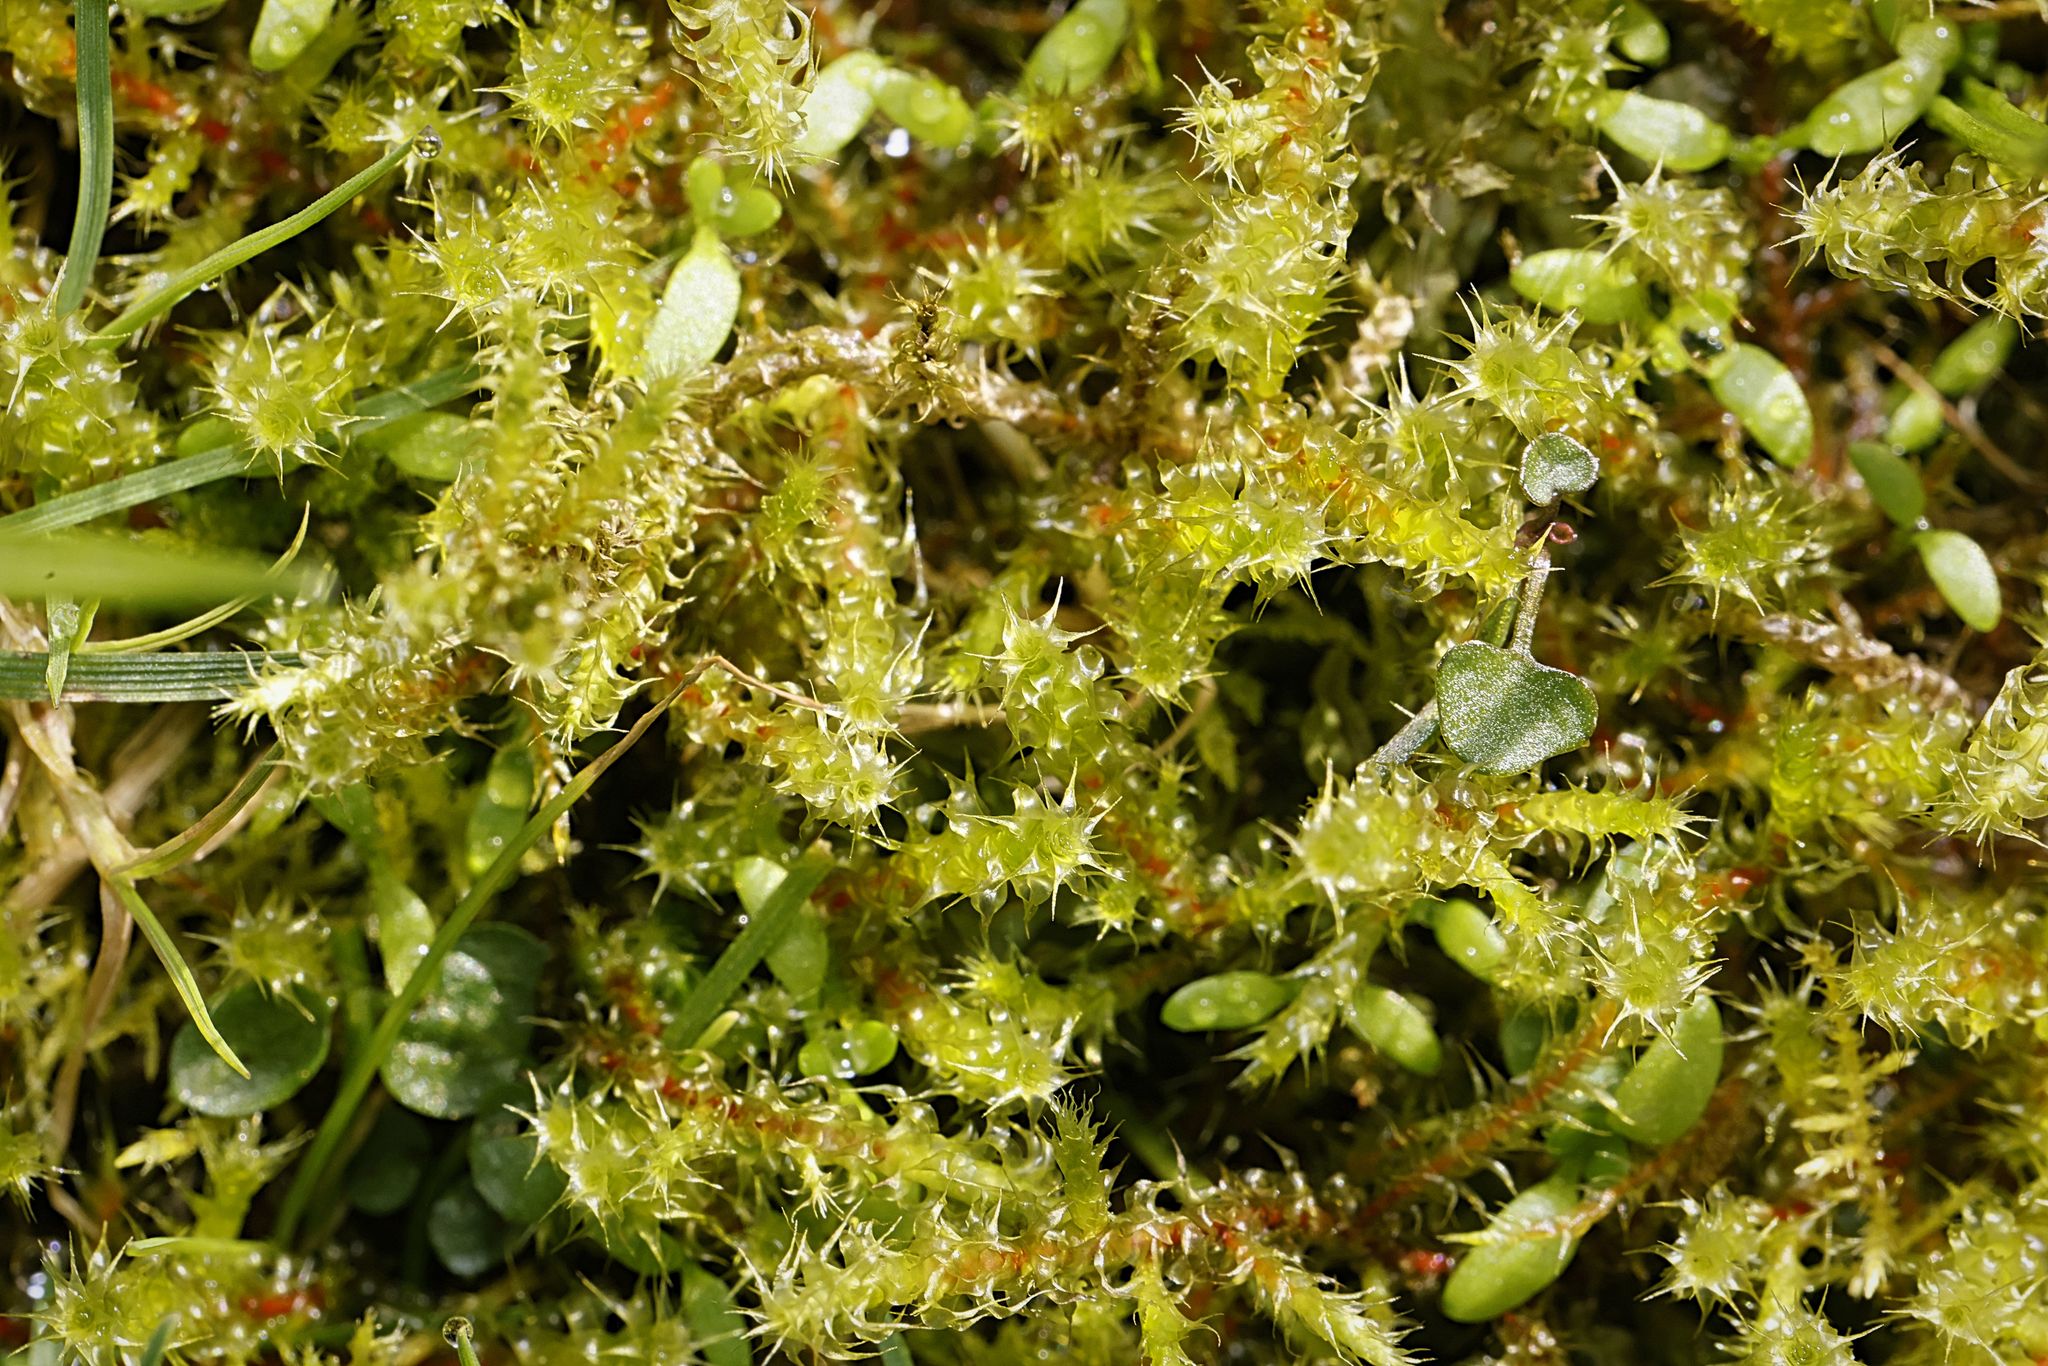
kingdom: Plantae
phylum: Bryophyta
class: Bryopsida
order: Hypnales
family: Hylocomiaceae
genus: Rhytidiadelphus
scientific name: Rhytidiadelphus squarrosus
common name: Springy turf-moss
